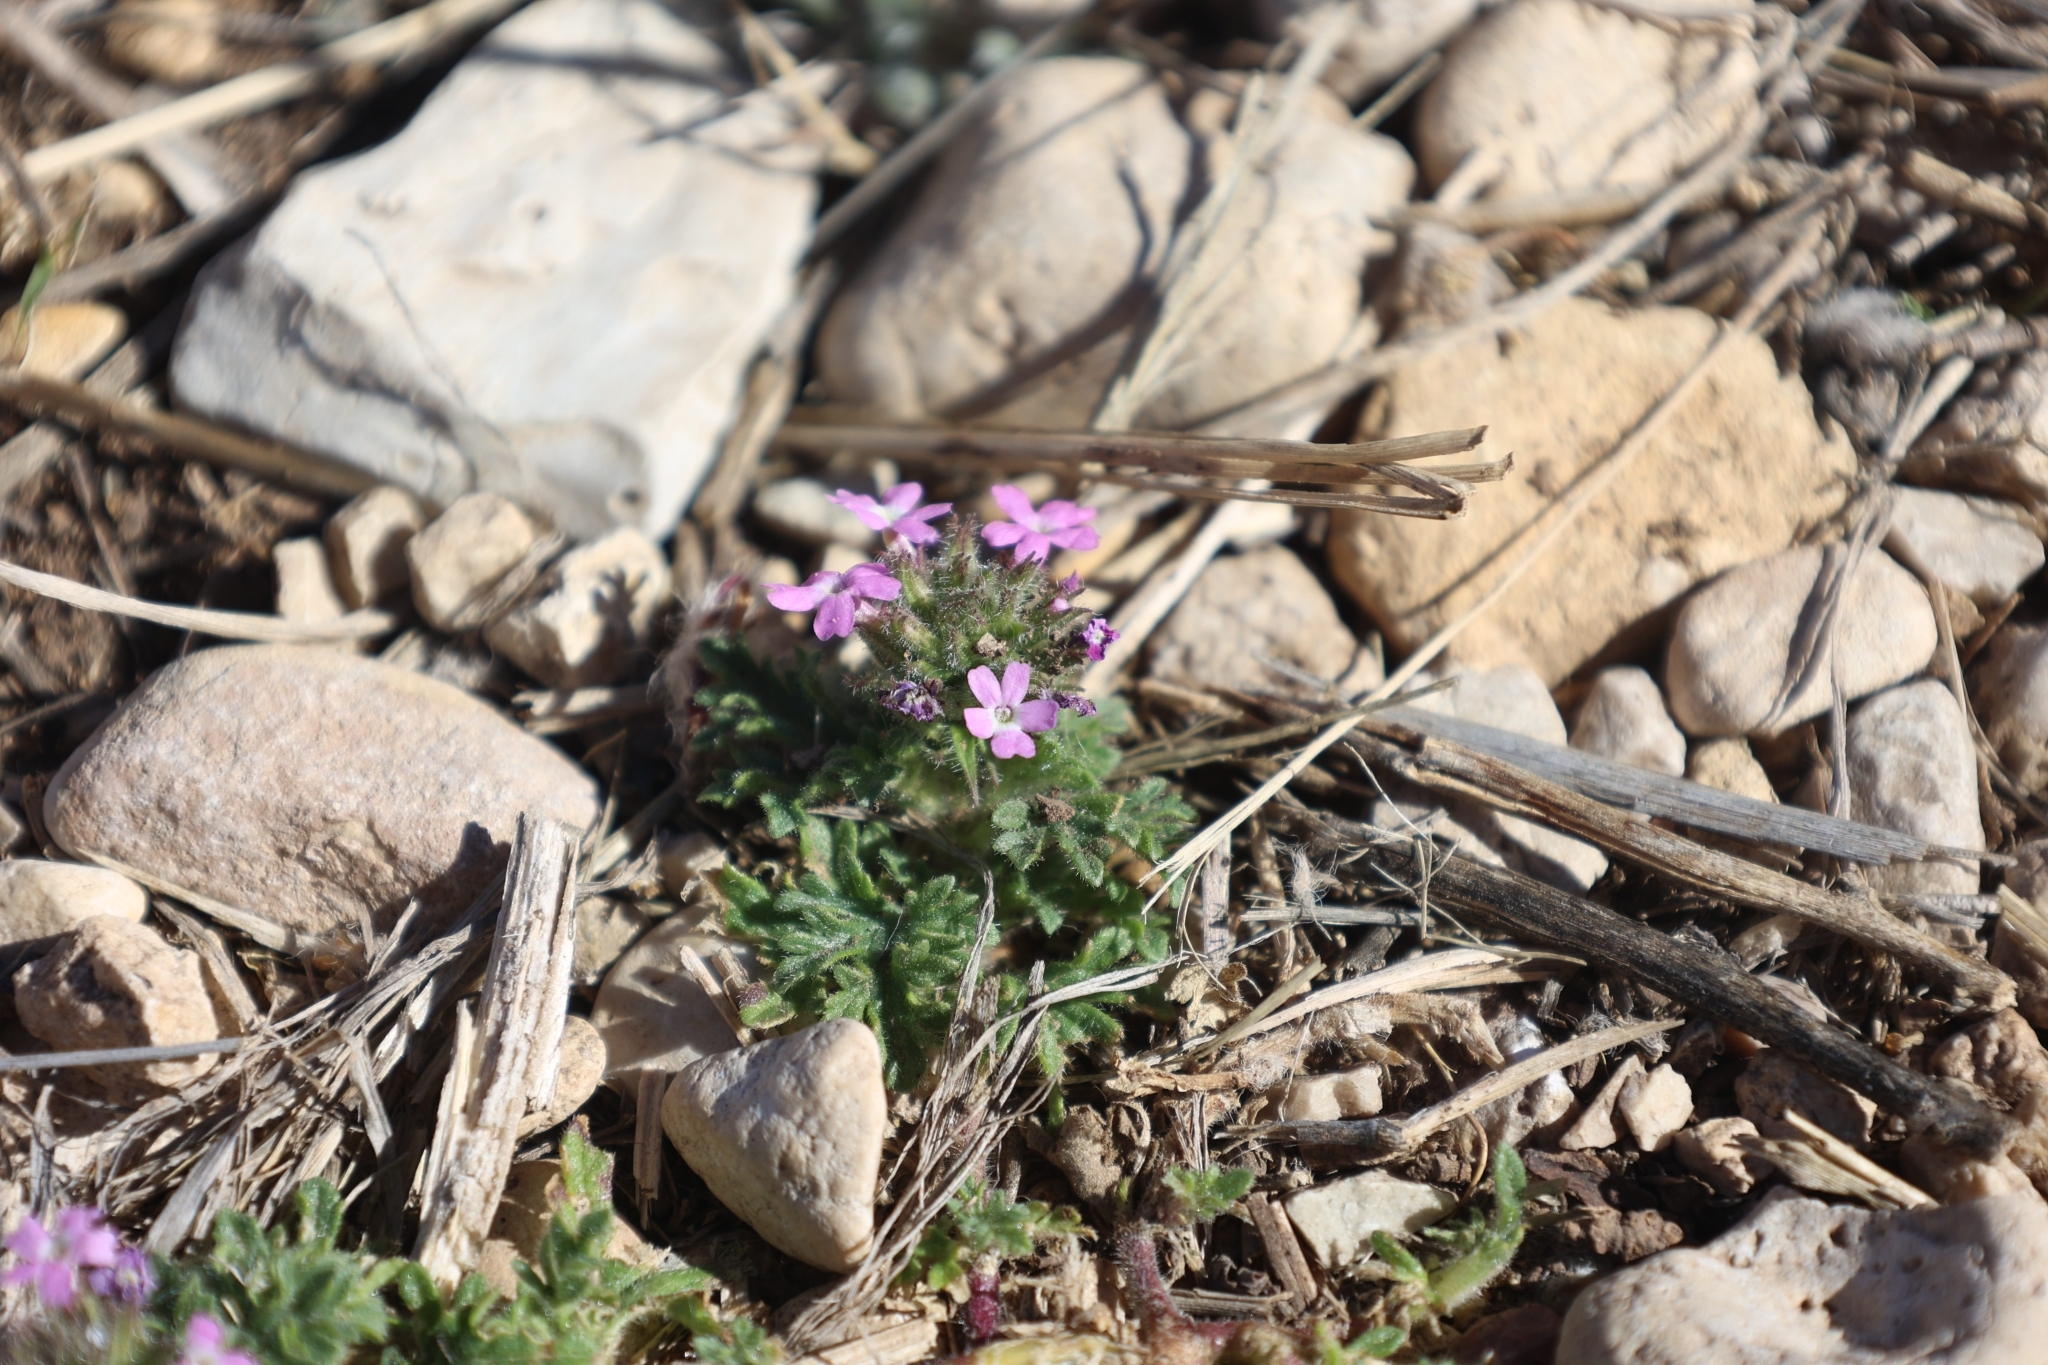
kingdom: Plantae
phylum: Tracheophyta
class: Magnoliopsida
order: Lamiales
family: Verbenaceae
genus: Verbena
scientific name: Verbena pumila
